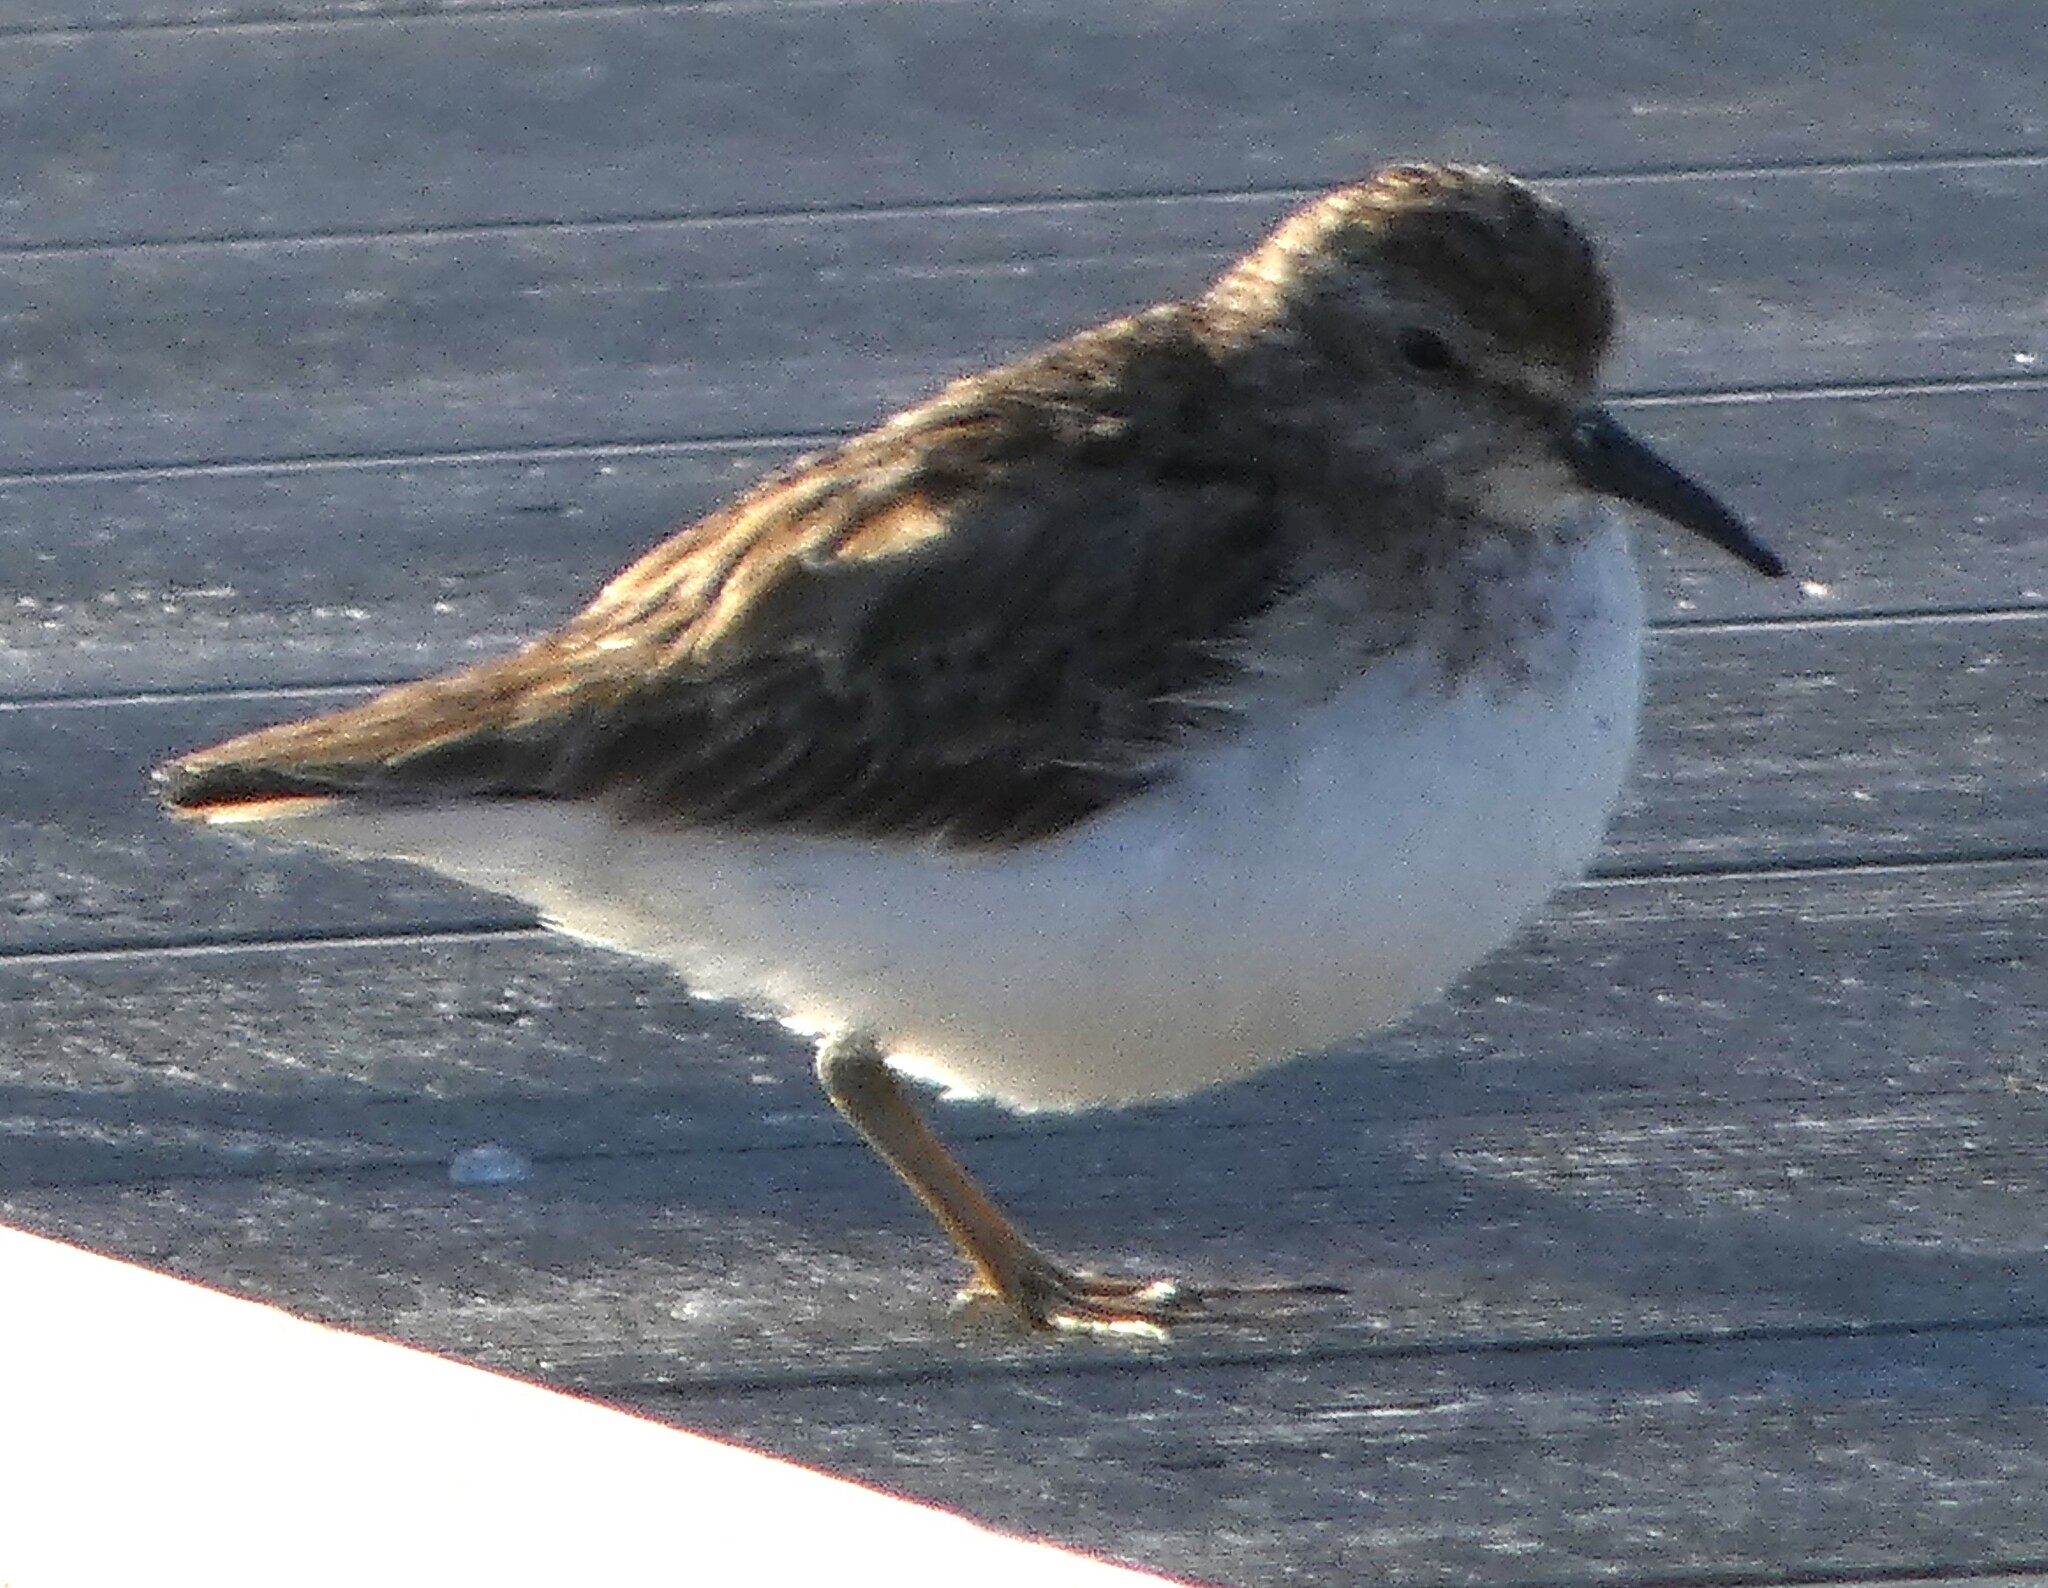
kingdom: Animalia
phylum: Chordata
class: Aves
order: Charadriiformes
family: Scolopacidae
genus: Calidris
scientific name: Calidris minutilla
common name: Least sandpiper
